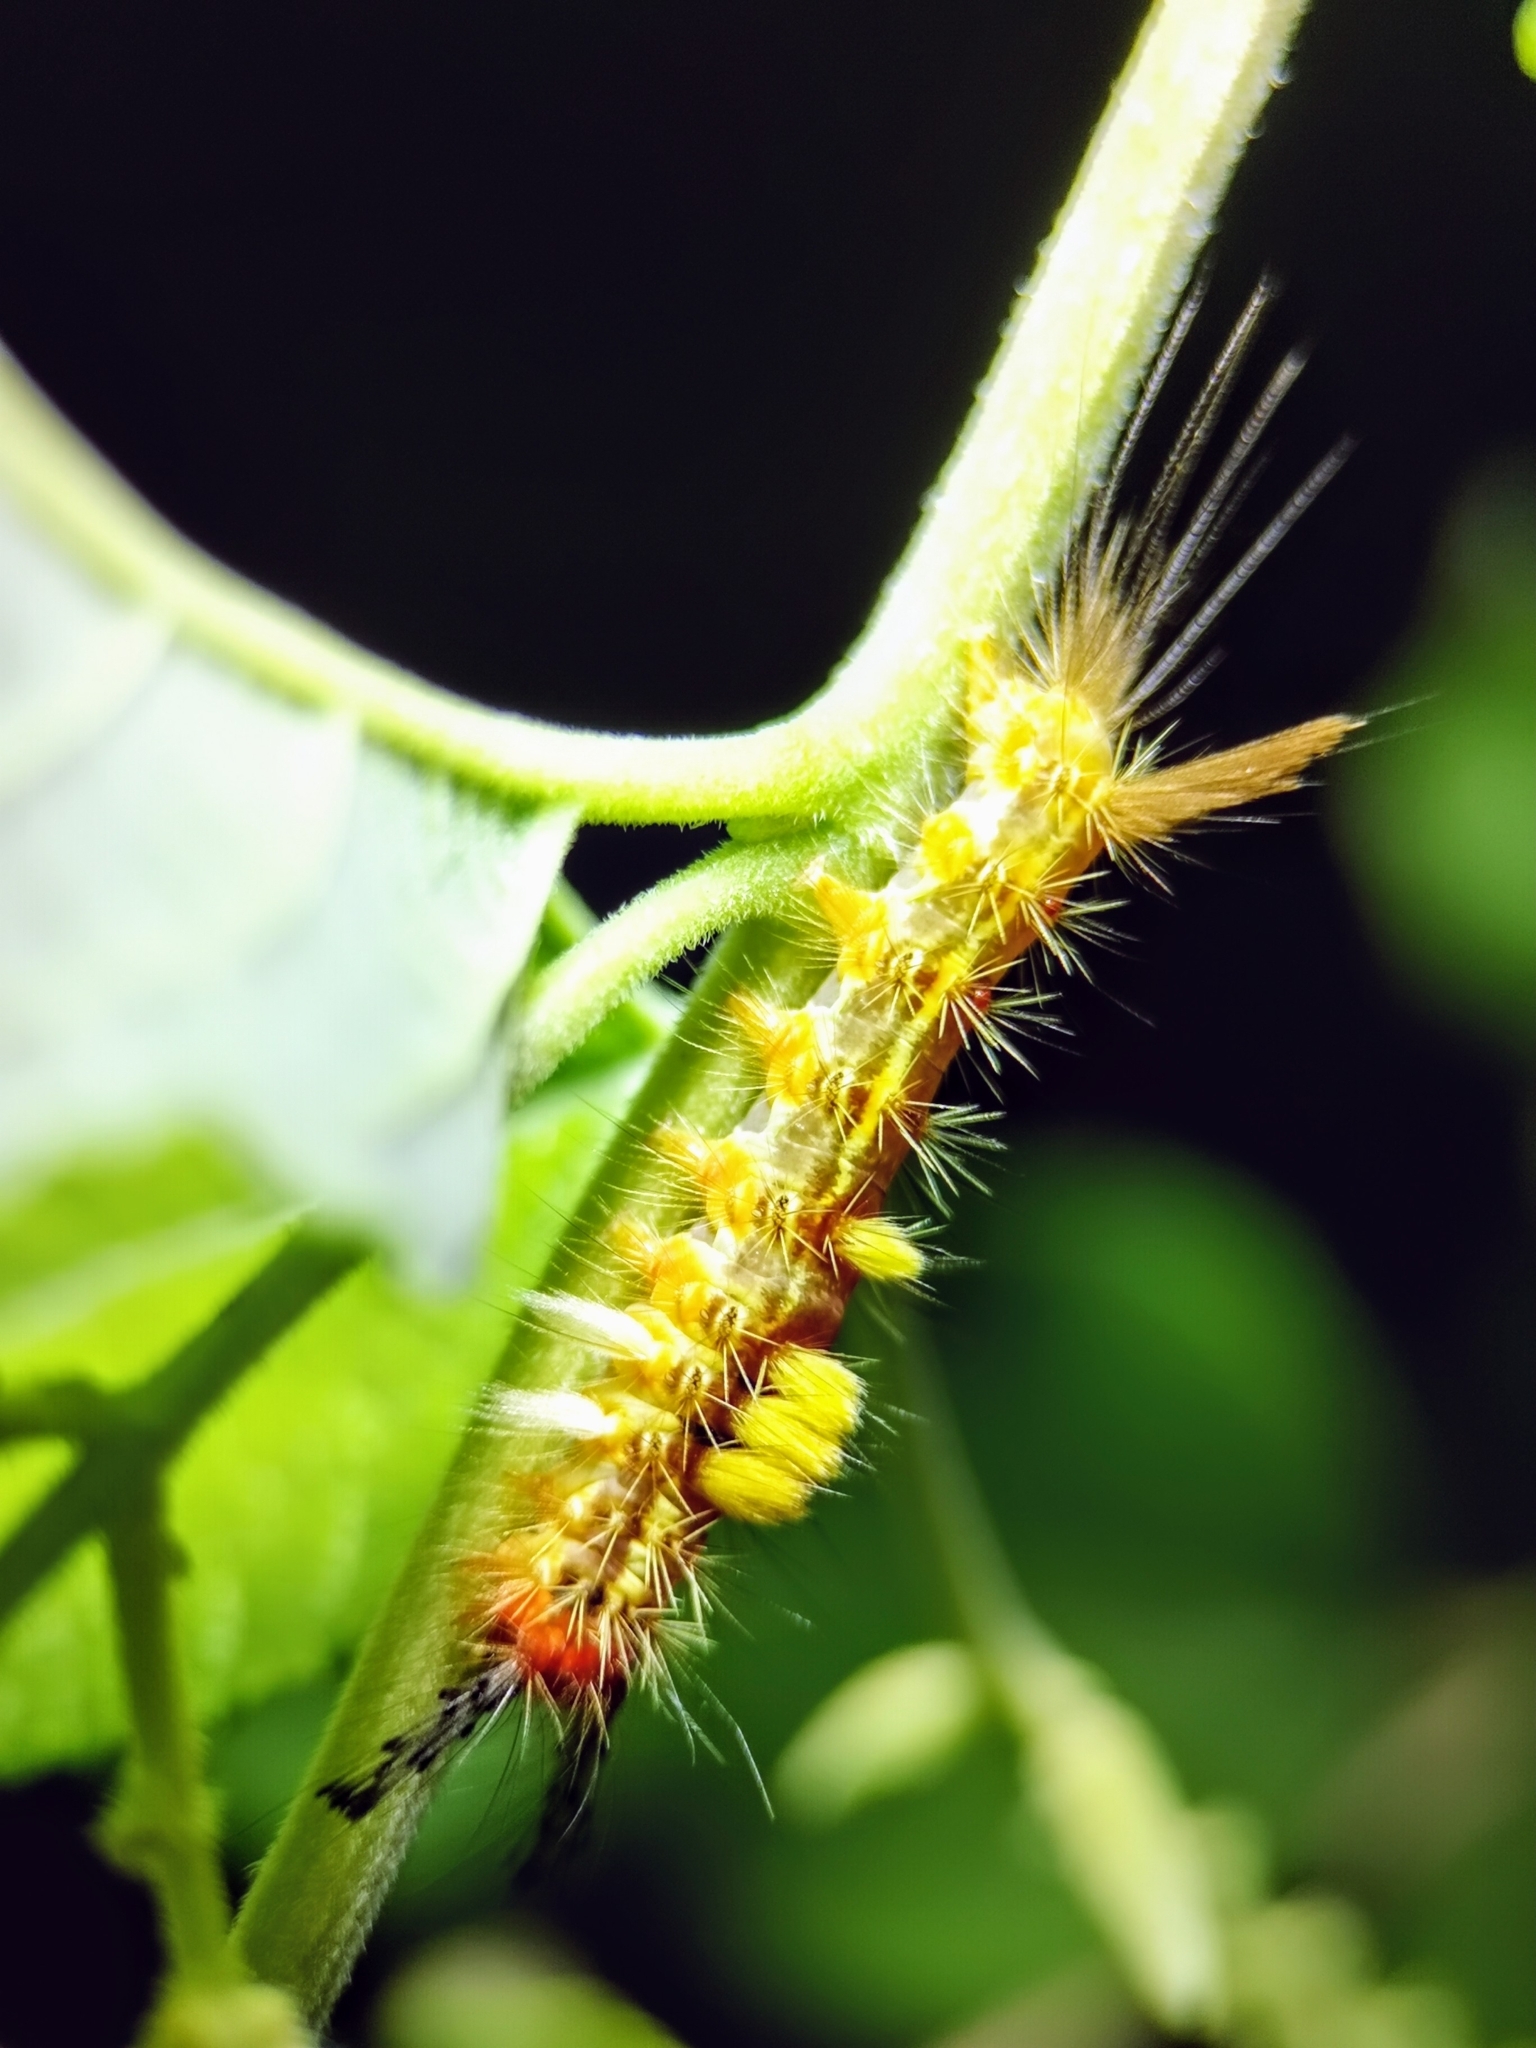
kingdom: Animalia
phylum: Arthropoda
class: Insecta
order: Lepidoptera
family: Erebidae
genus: Orgyia
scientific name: Orgyia postica
